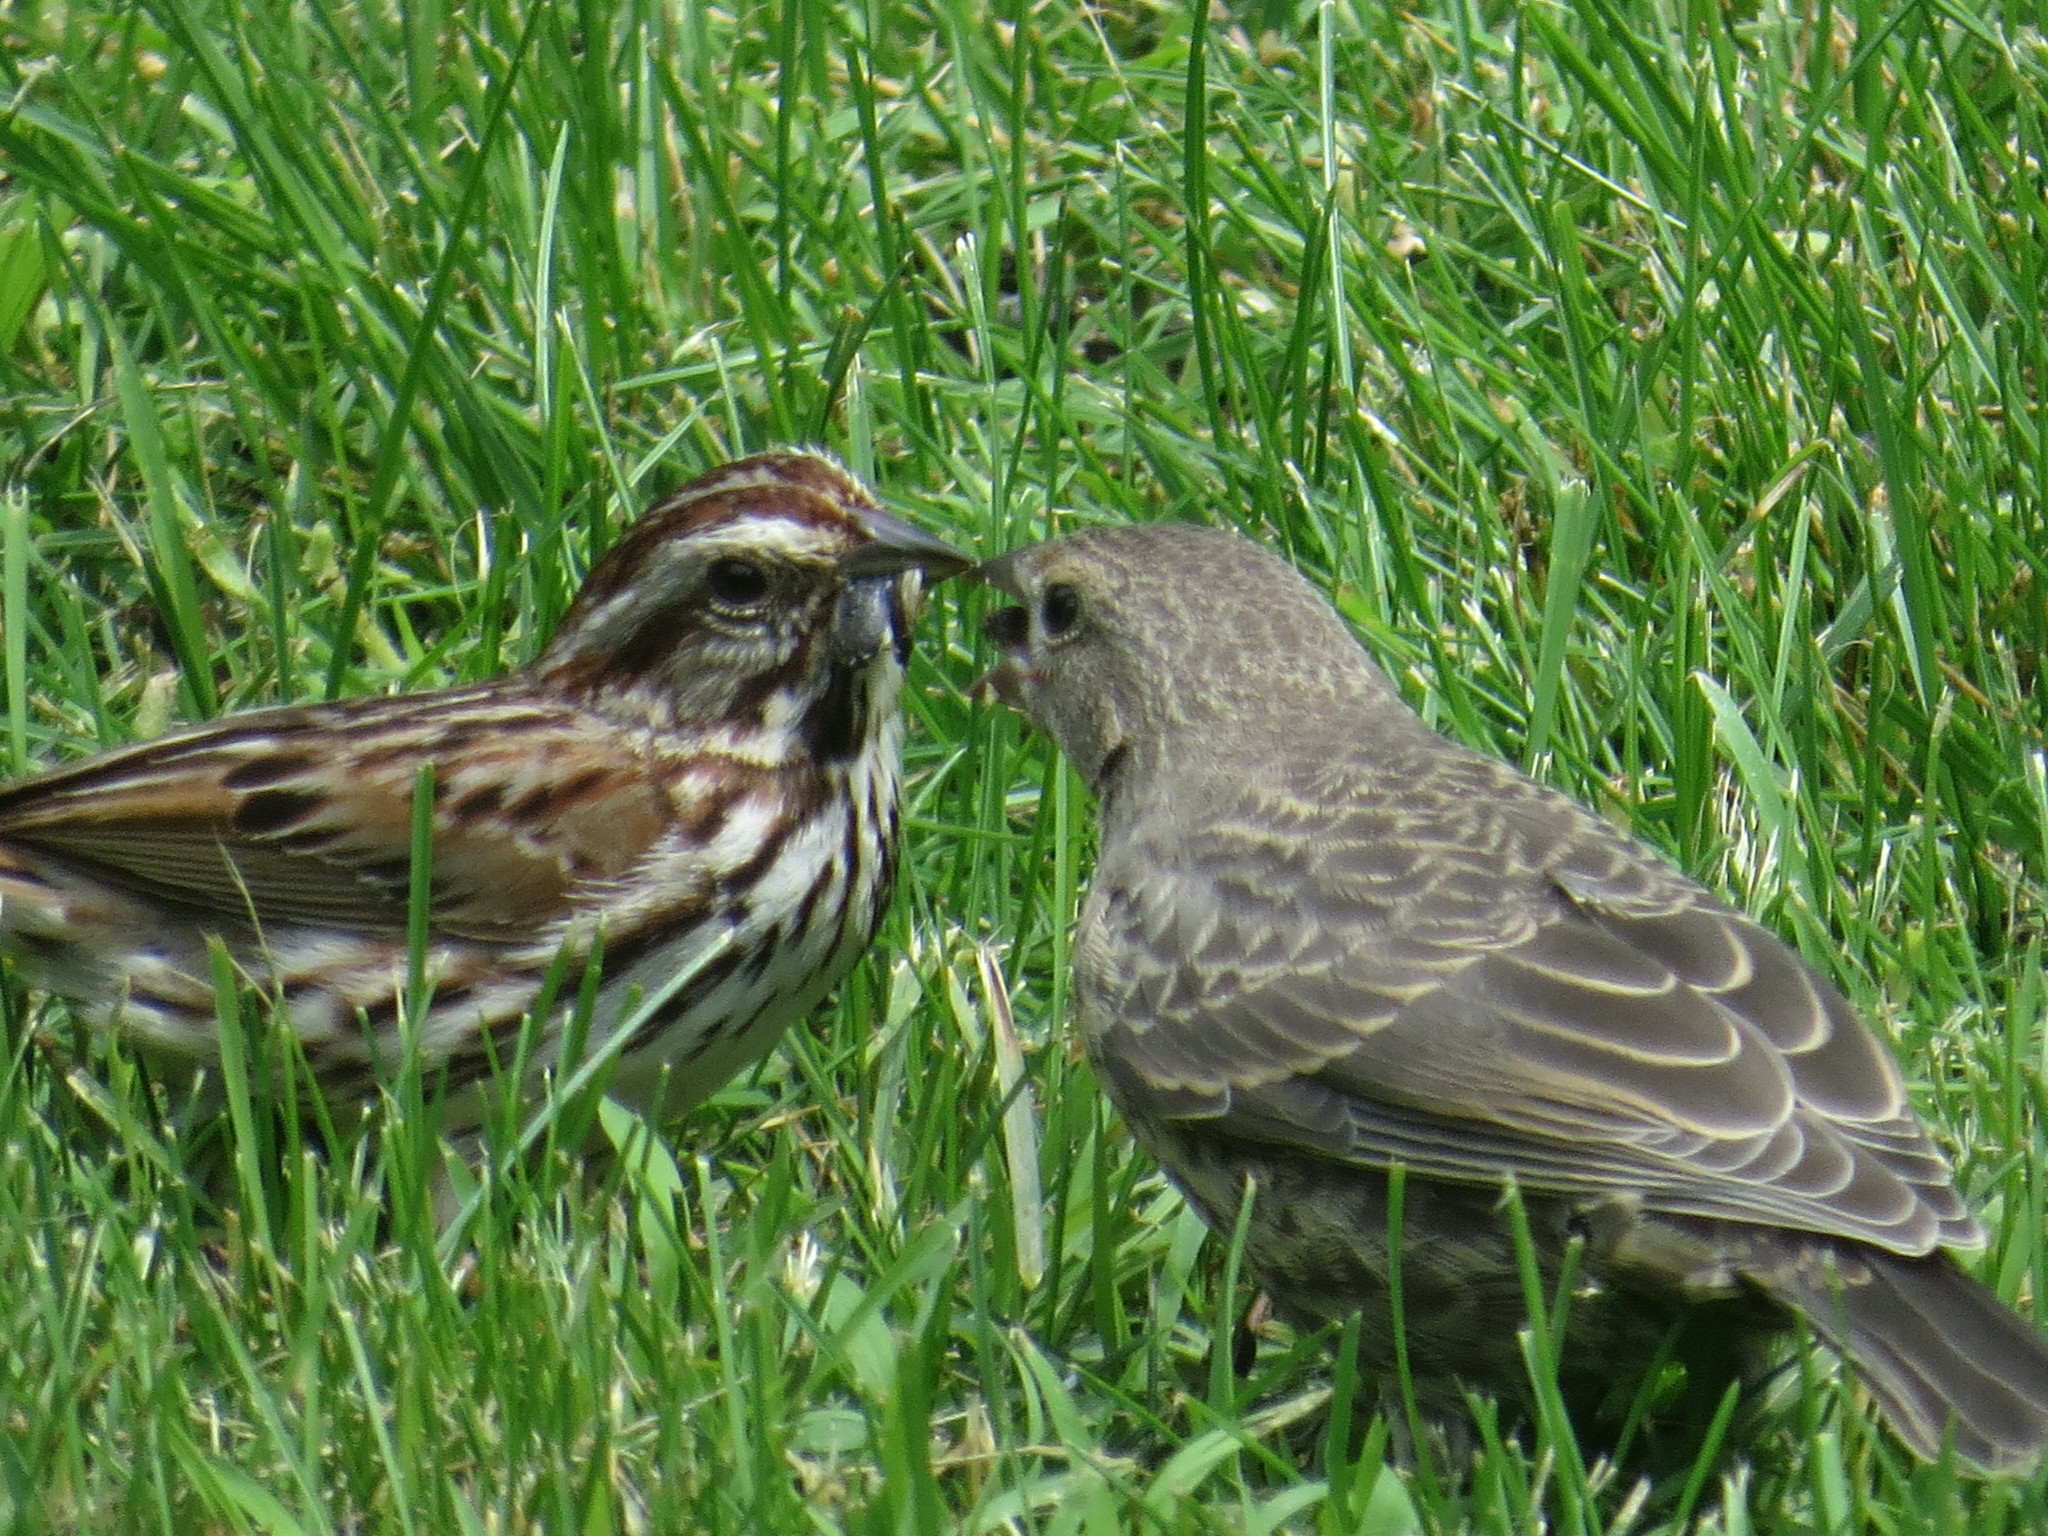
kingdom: Animalia
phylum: Chordata
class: Aves
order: Passeriformes
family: Icteridae
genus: Molothrus
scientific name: Molothrus ater
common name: Brown-headed cowbird
